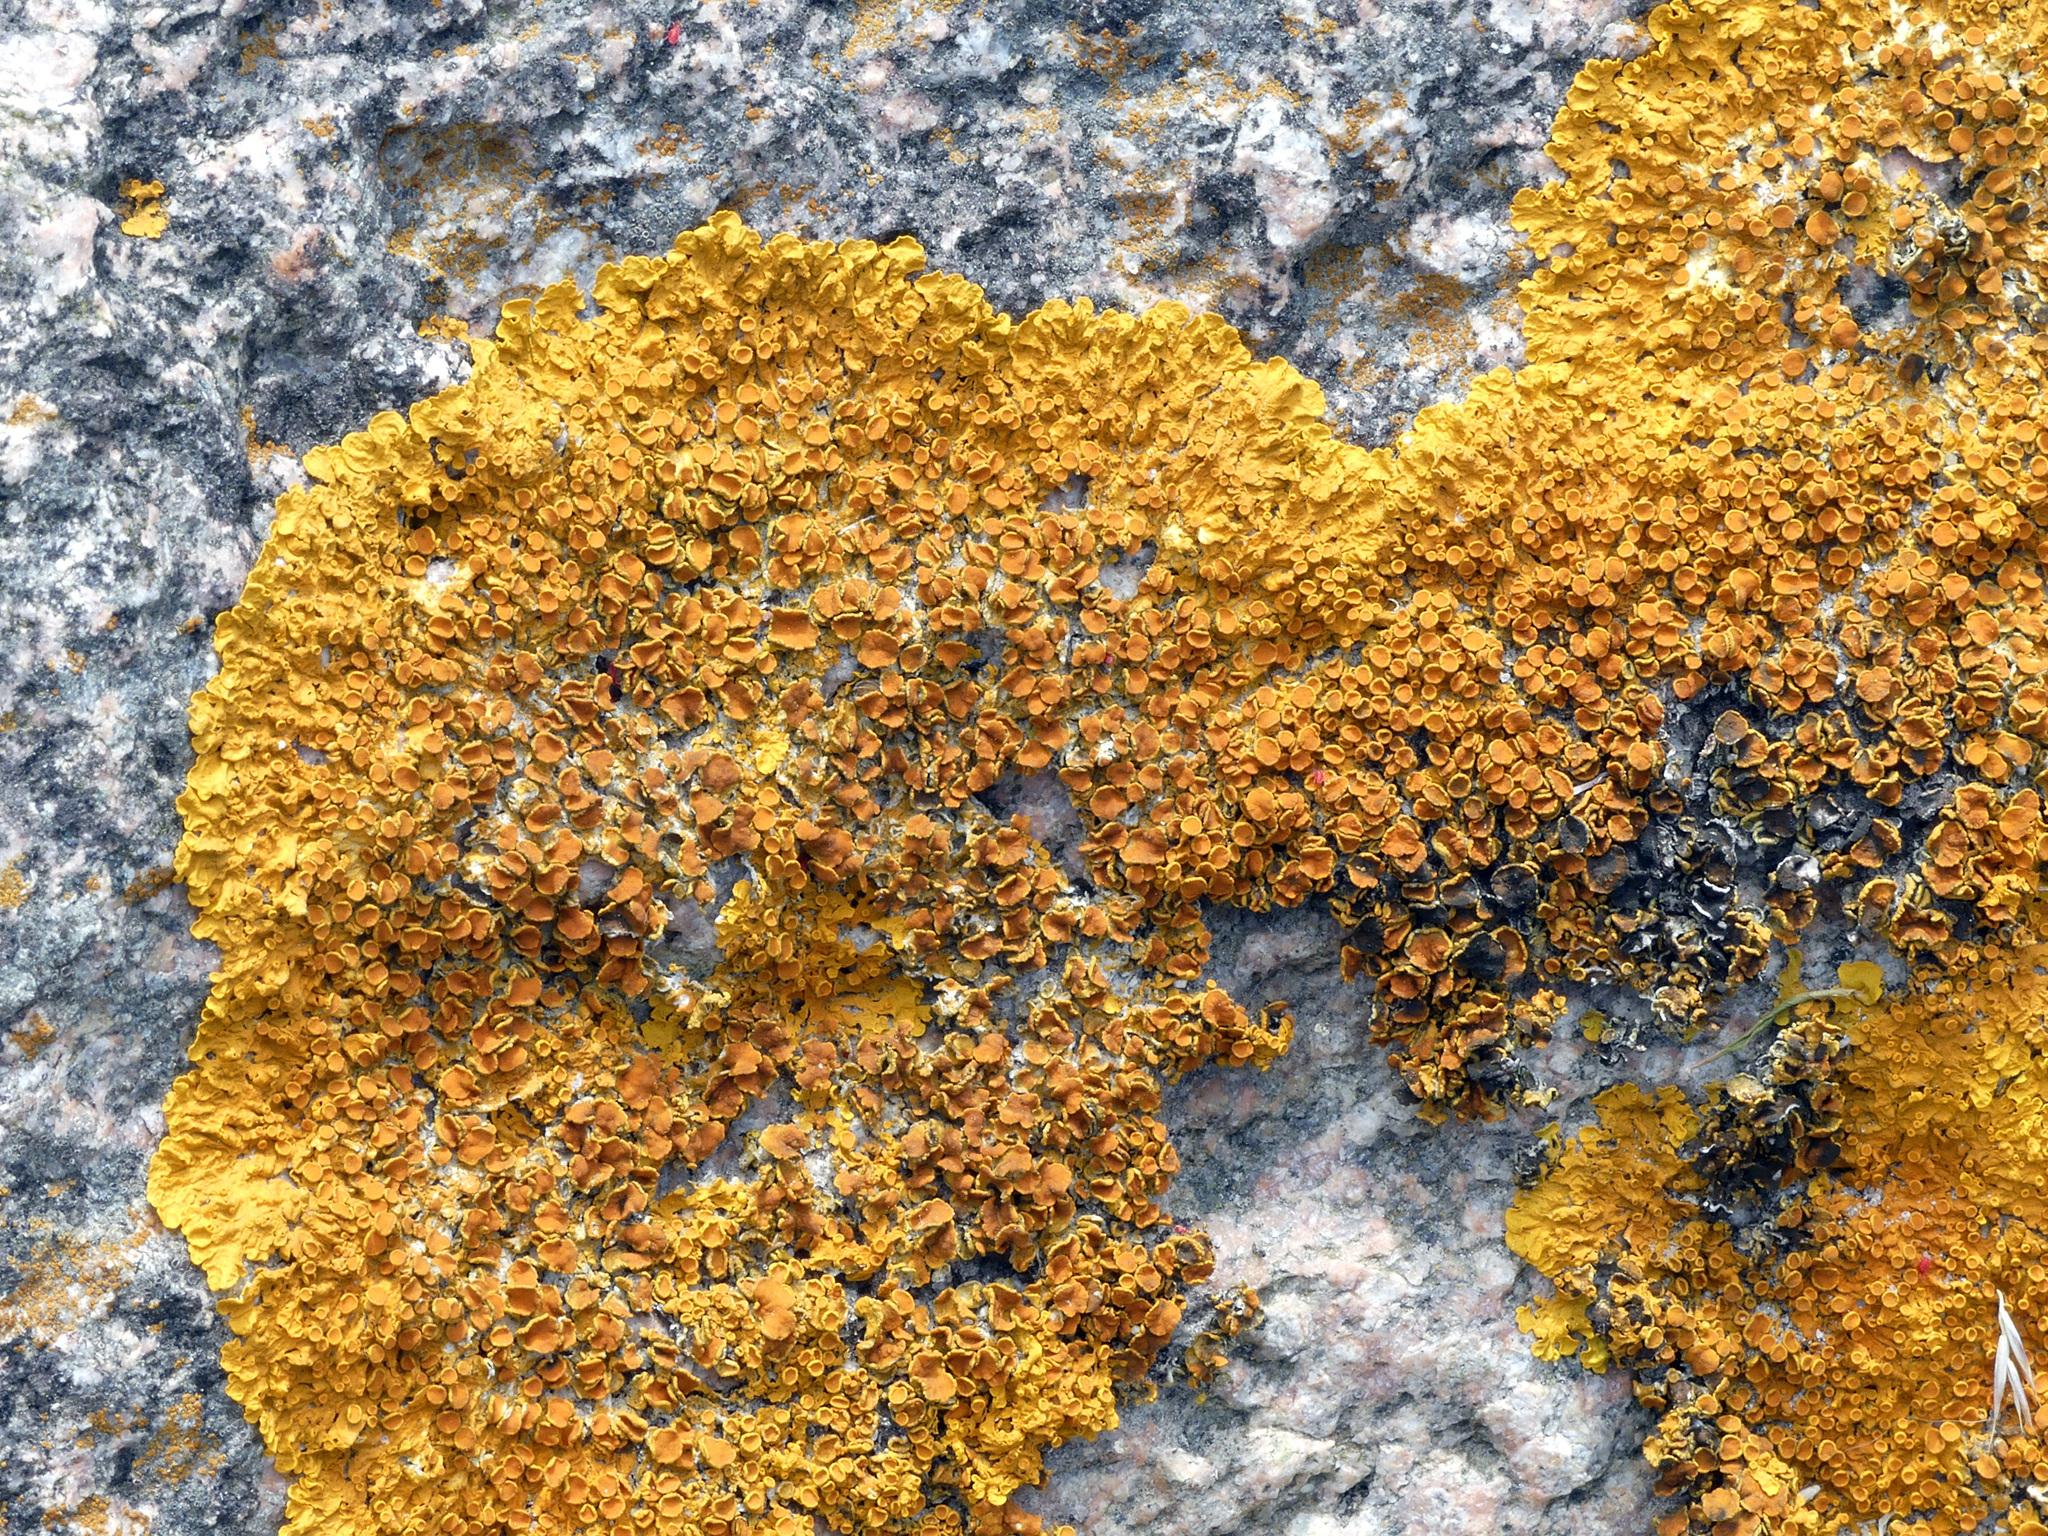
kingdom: Fungi
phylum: Ascomycota
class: Lecanoromycetes
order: Teloschistales
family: Teloschistaceae
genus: Xanthoria
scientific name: Xanthoria parietina
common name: Common orange lichen
